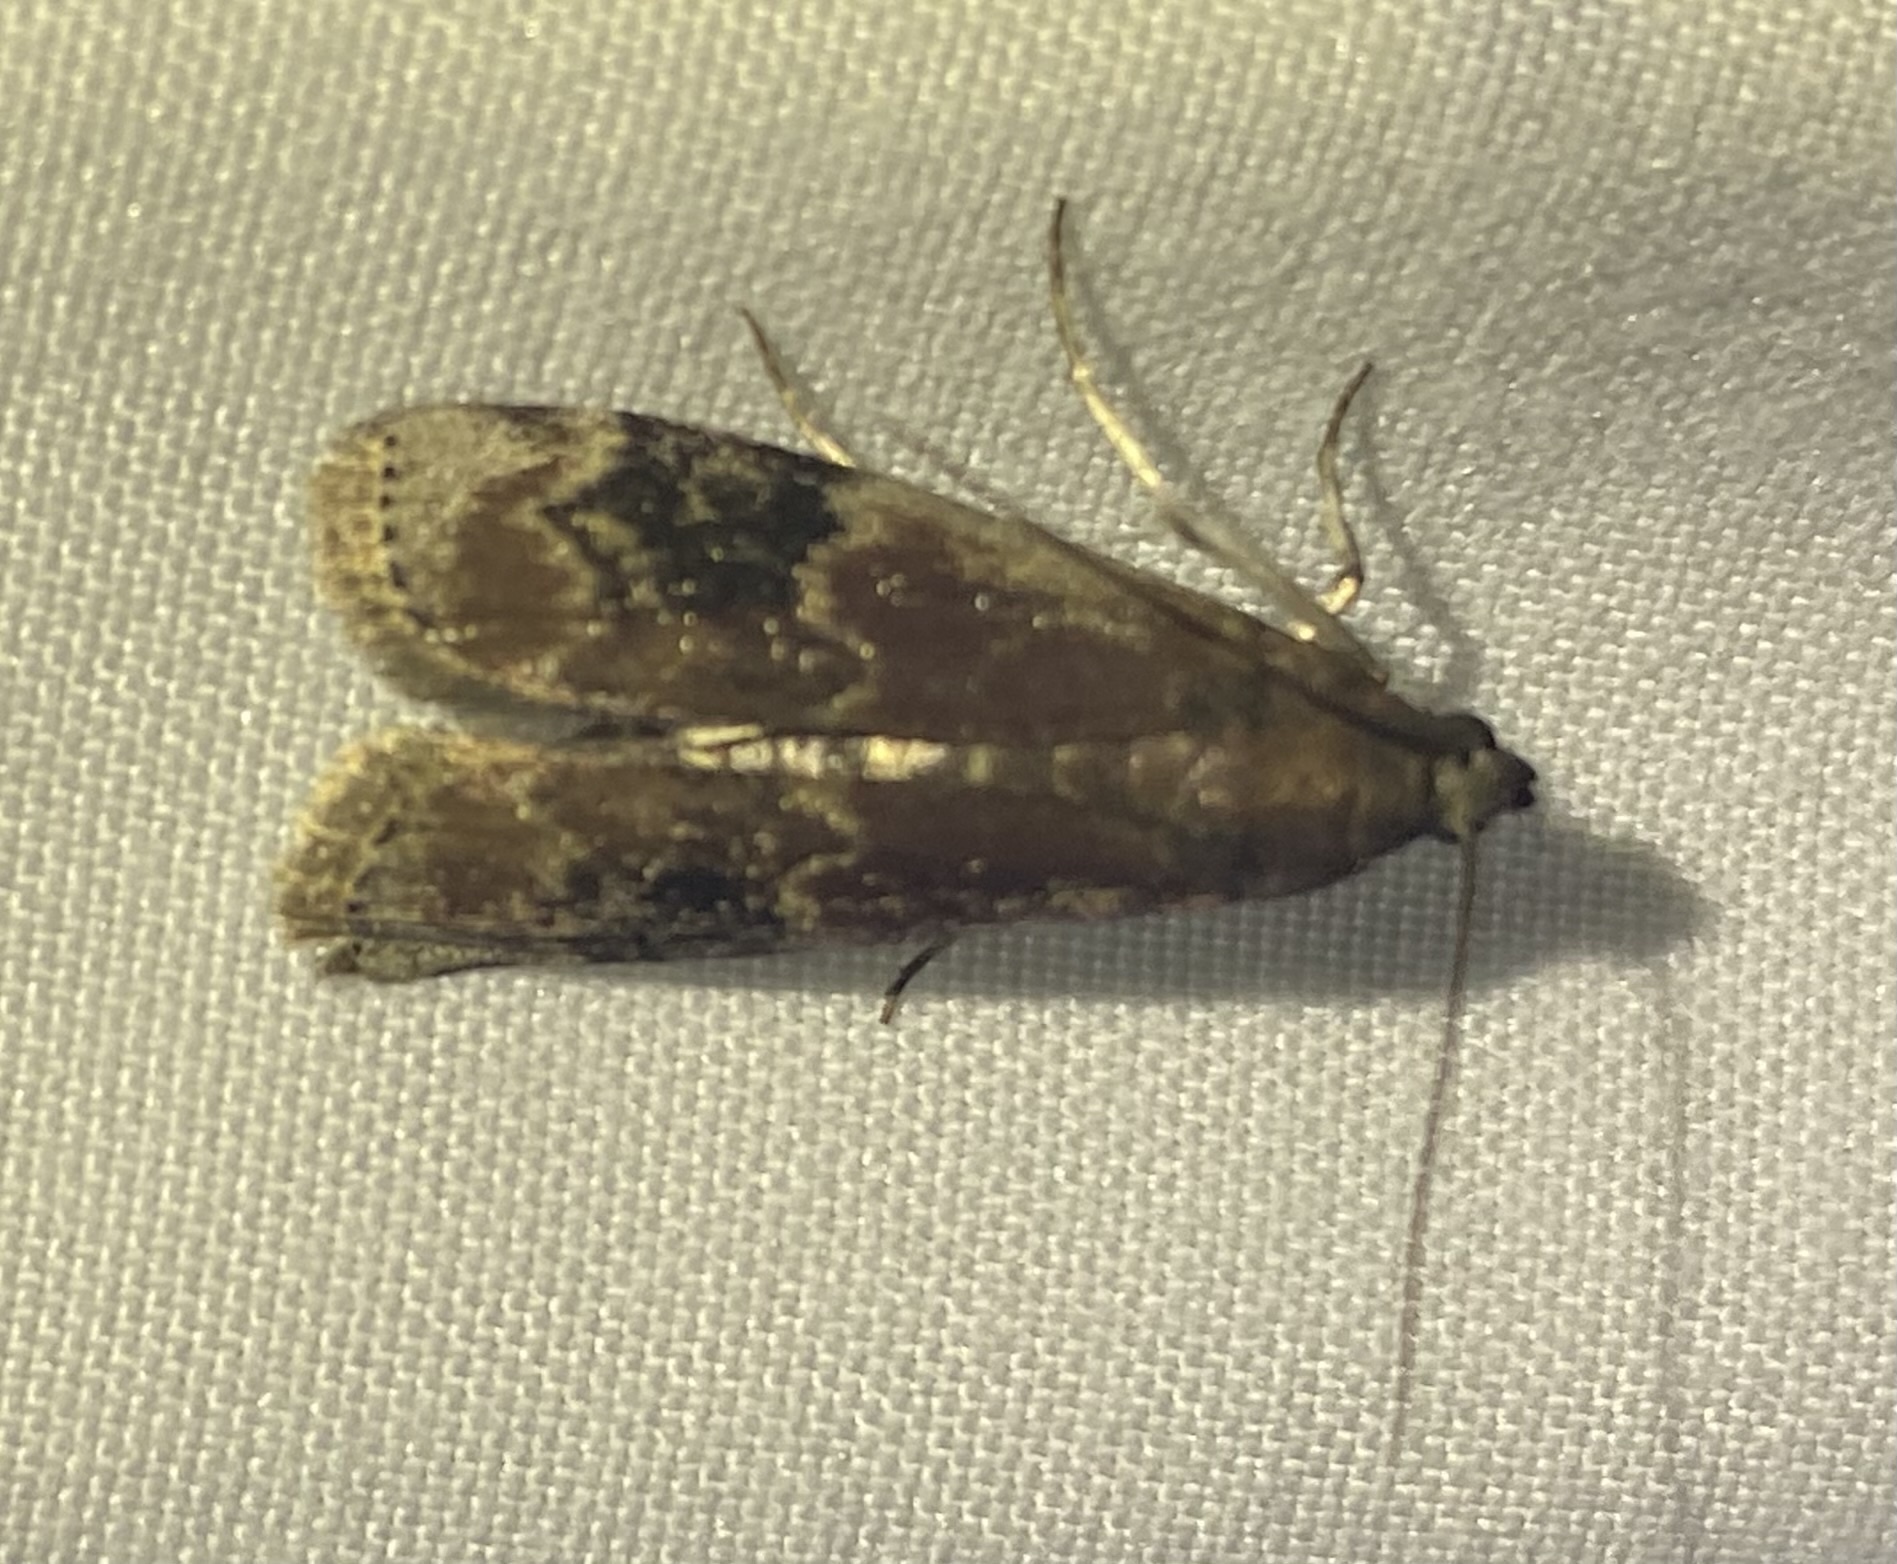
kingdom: Animalia
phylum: Arthropoda
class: Insecta
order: Lepidoptera
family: Pyralidae
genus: Euzophera
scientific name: Euzophera semifuneralis
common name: American plum borer moth
